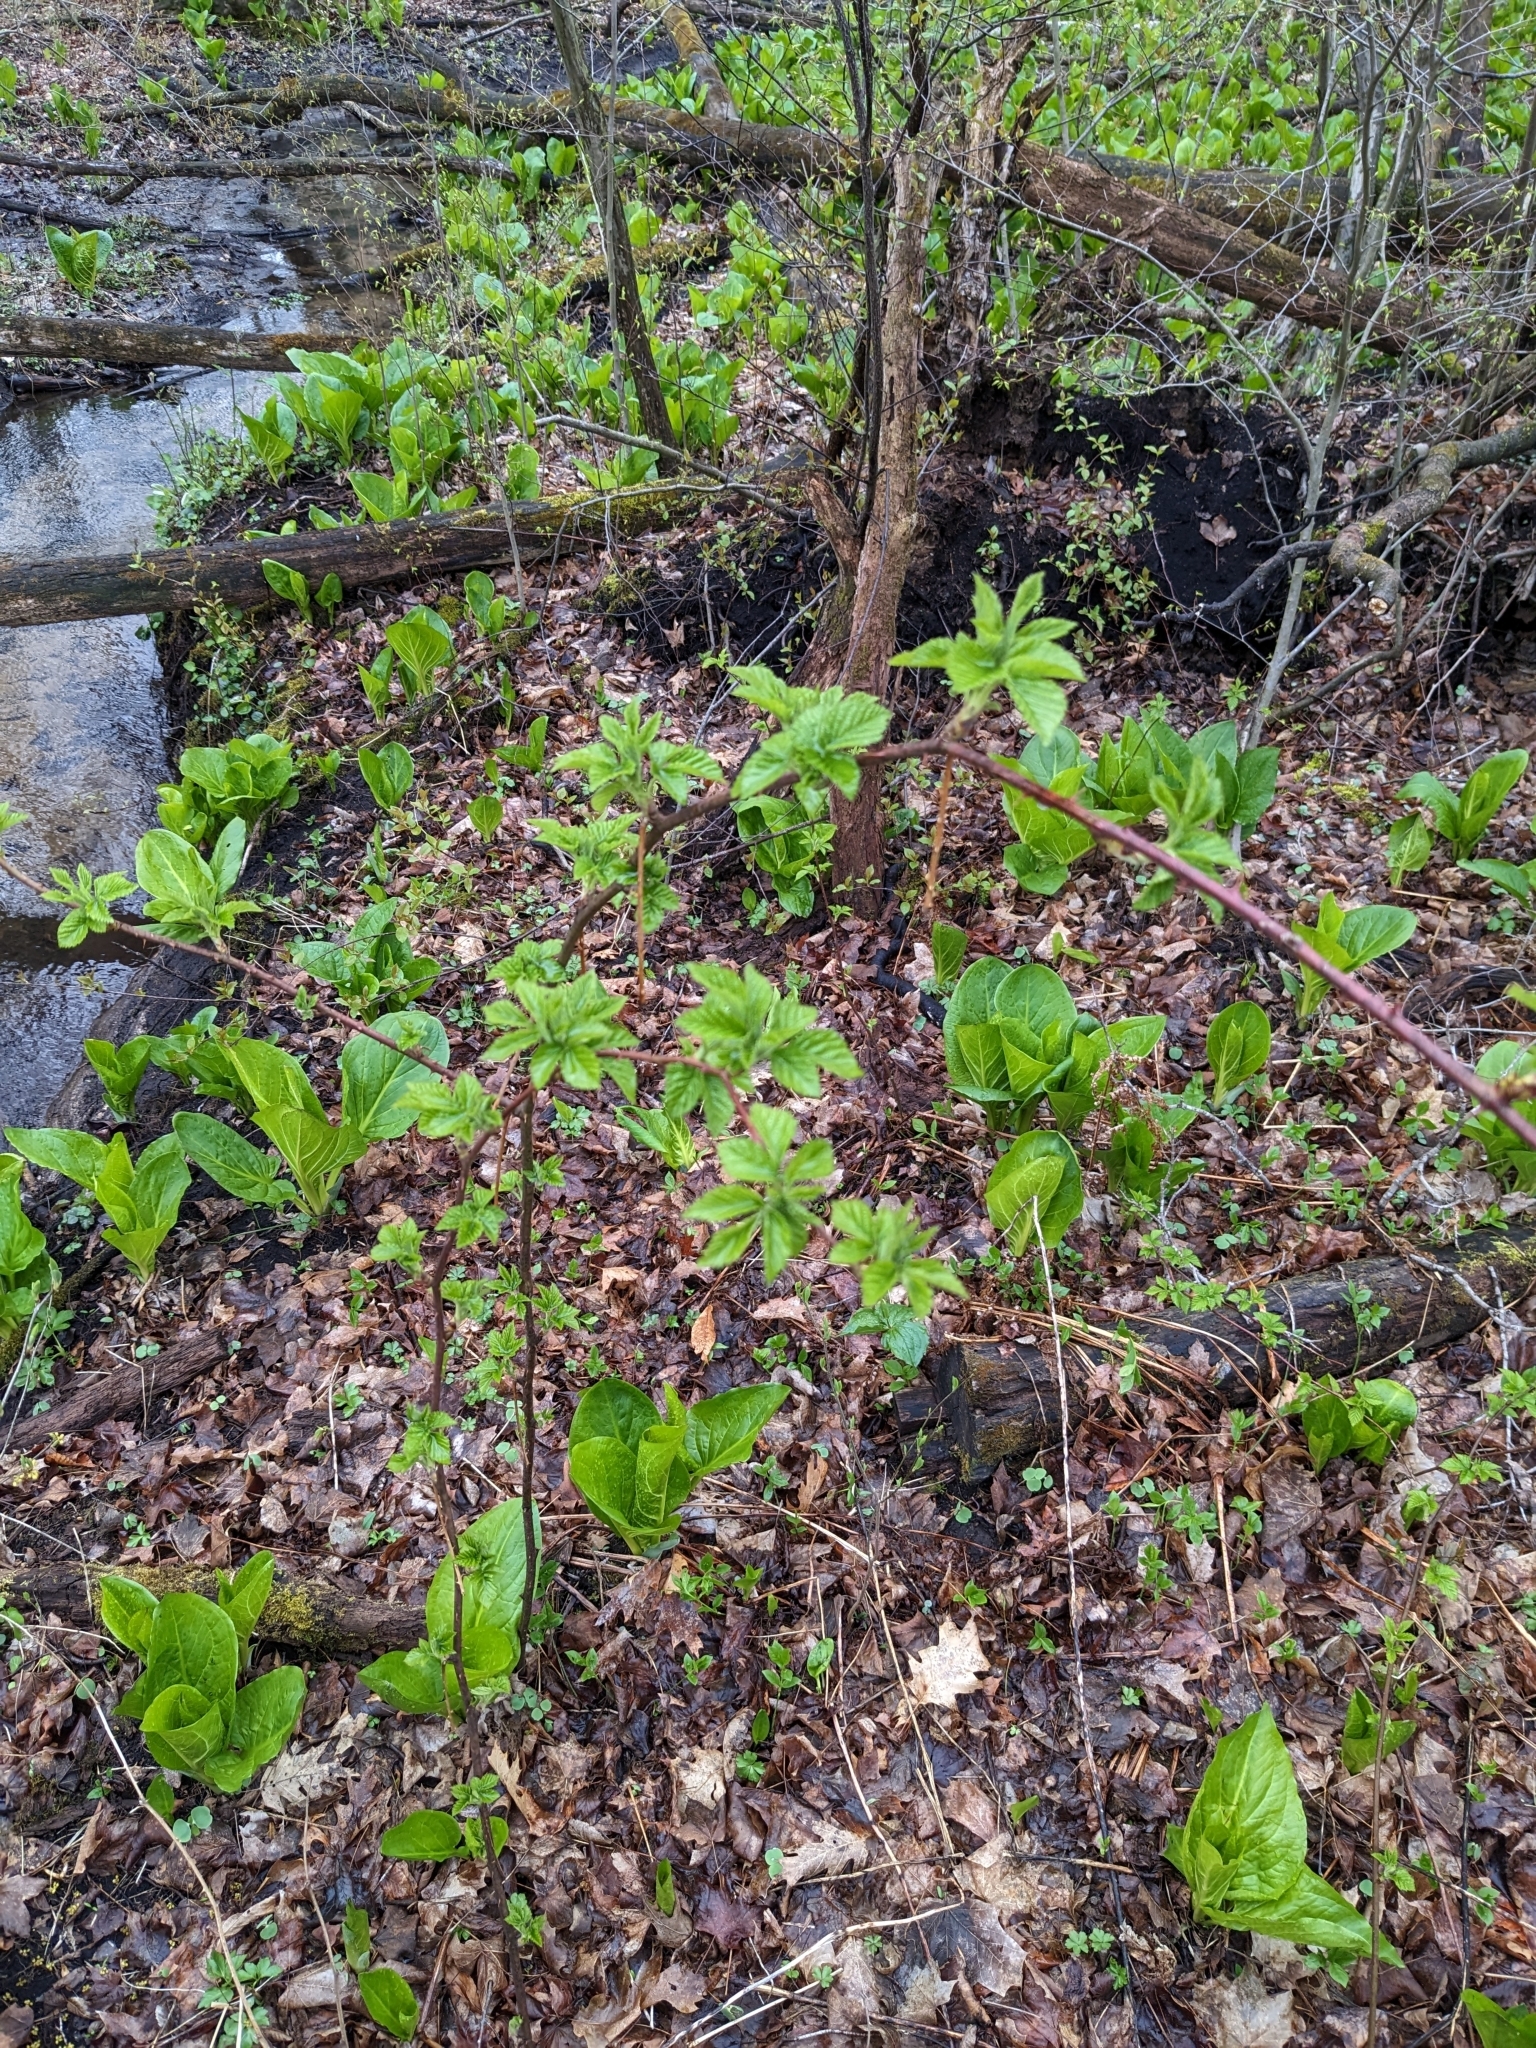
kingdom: Plantae
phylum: Tracheophyta
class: Magnoliopsida
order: Rosales
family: Rosaceae
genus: Rubus
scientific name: Rubus occidentalis
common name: Black raspberry
